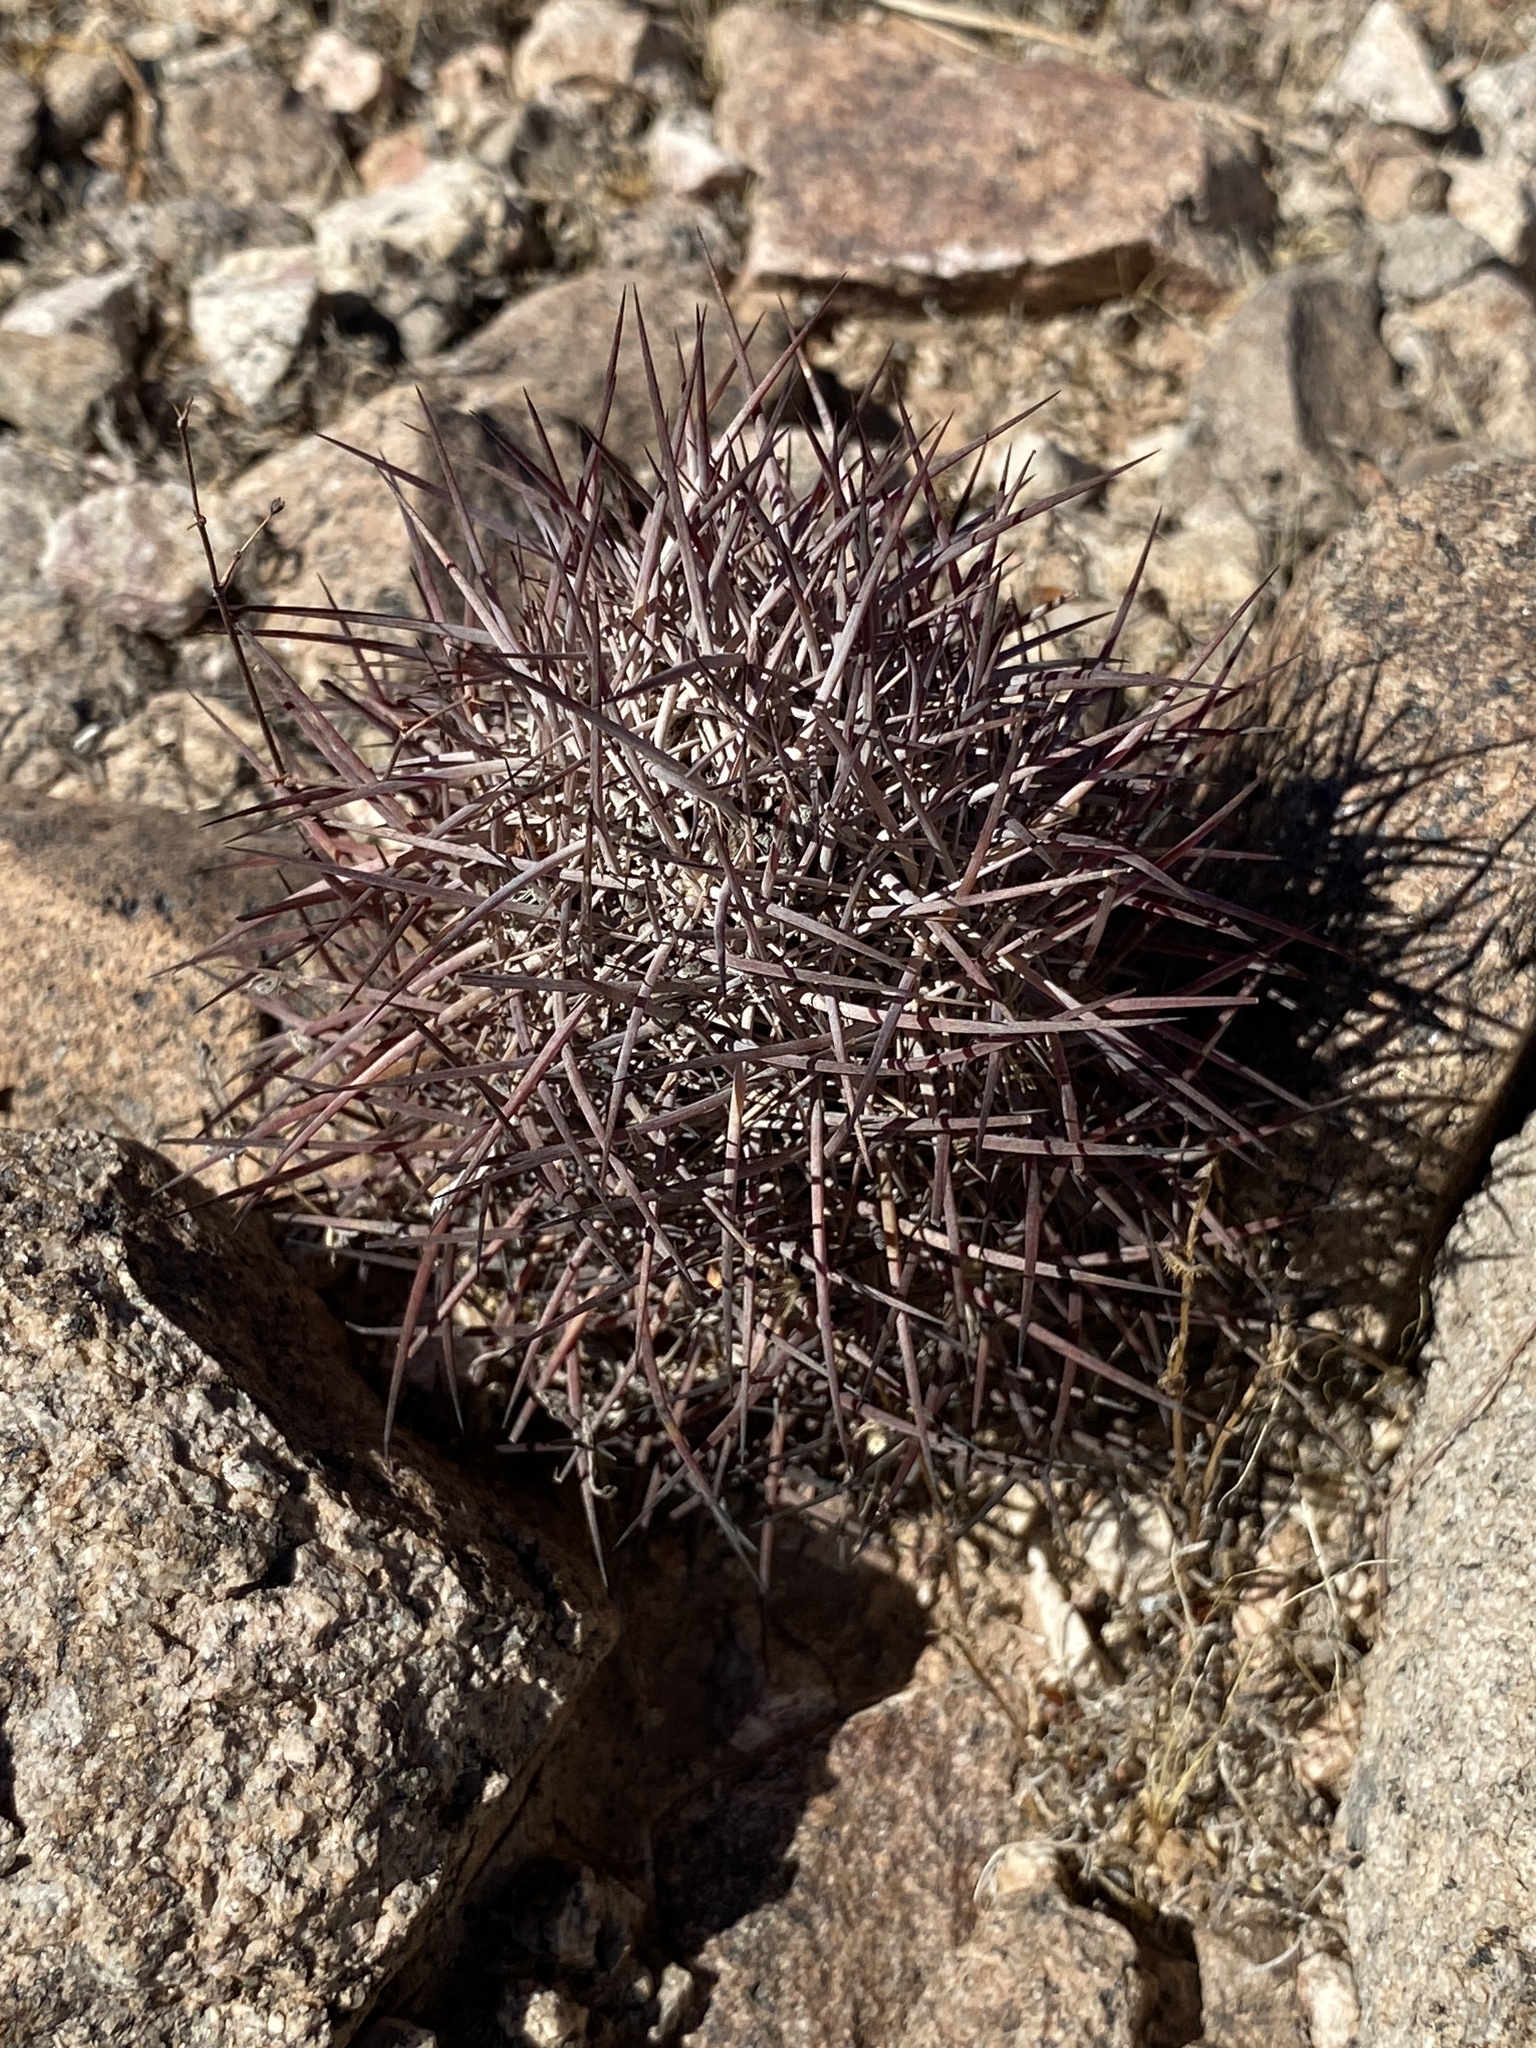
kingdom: Plantae
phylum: Tracheophyta
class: Magnoliopsida
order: Caryophyllales
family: Cactaceae
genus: Sclerocactus
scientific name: Sclerocactus johnsonii
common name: Eight-spine fishhook cactus
